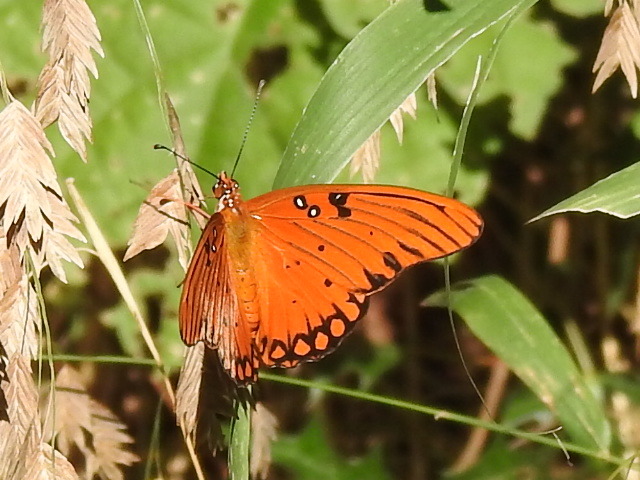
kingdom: Animalia
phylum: Arthropoda
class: Insecta
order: Lepidoptera
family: Nymphalidae
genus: Dione
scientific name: Dione vanillae
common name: Gulf fritillary
